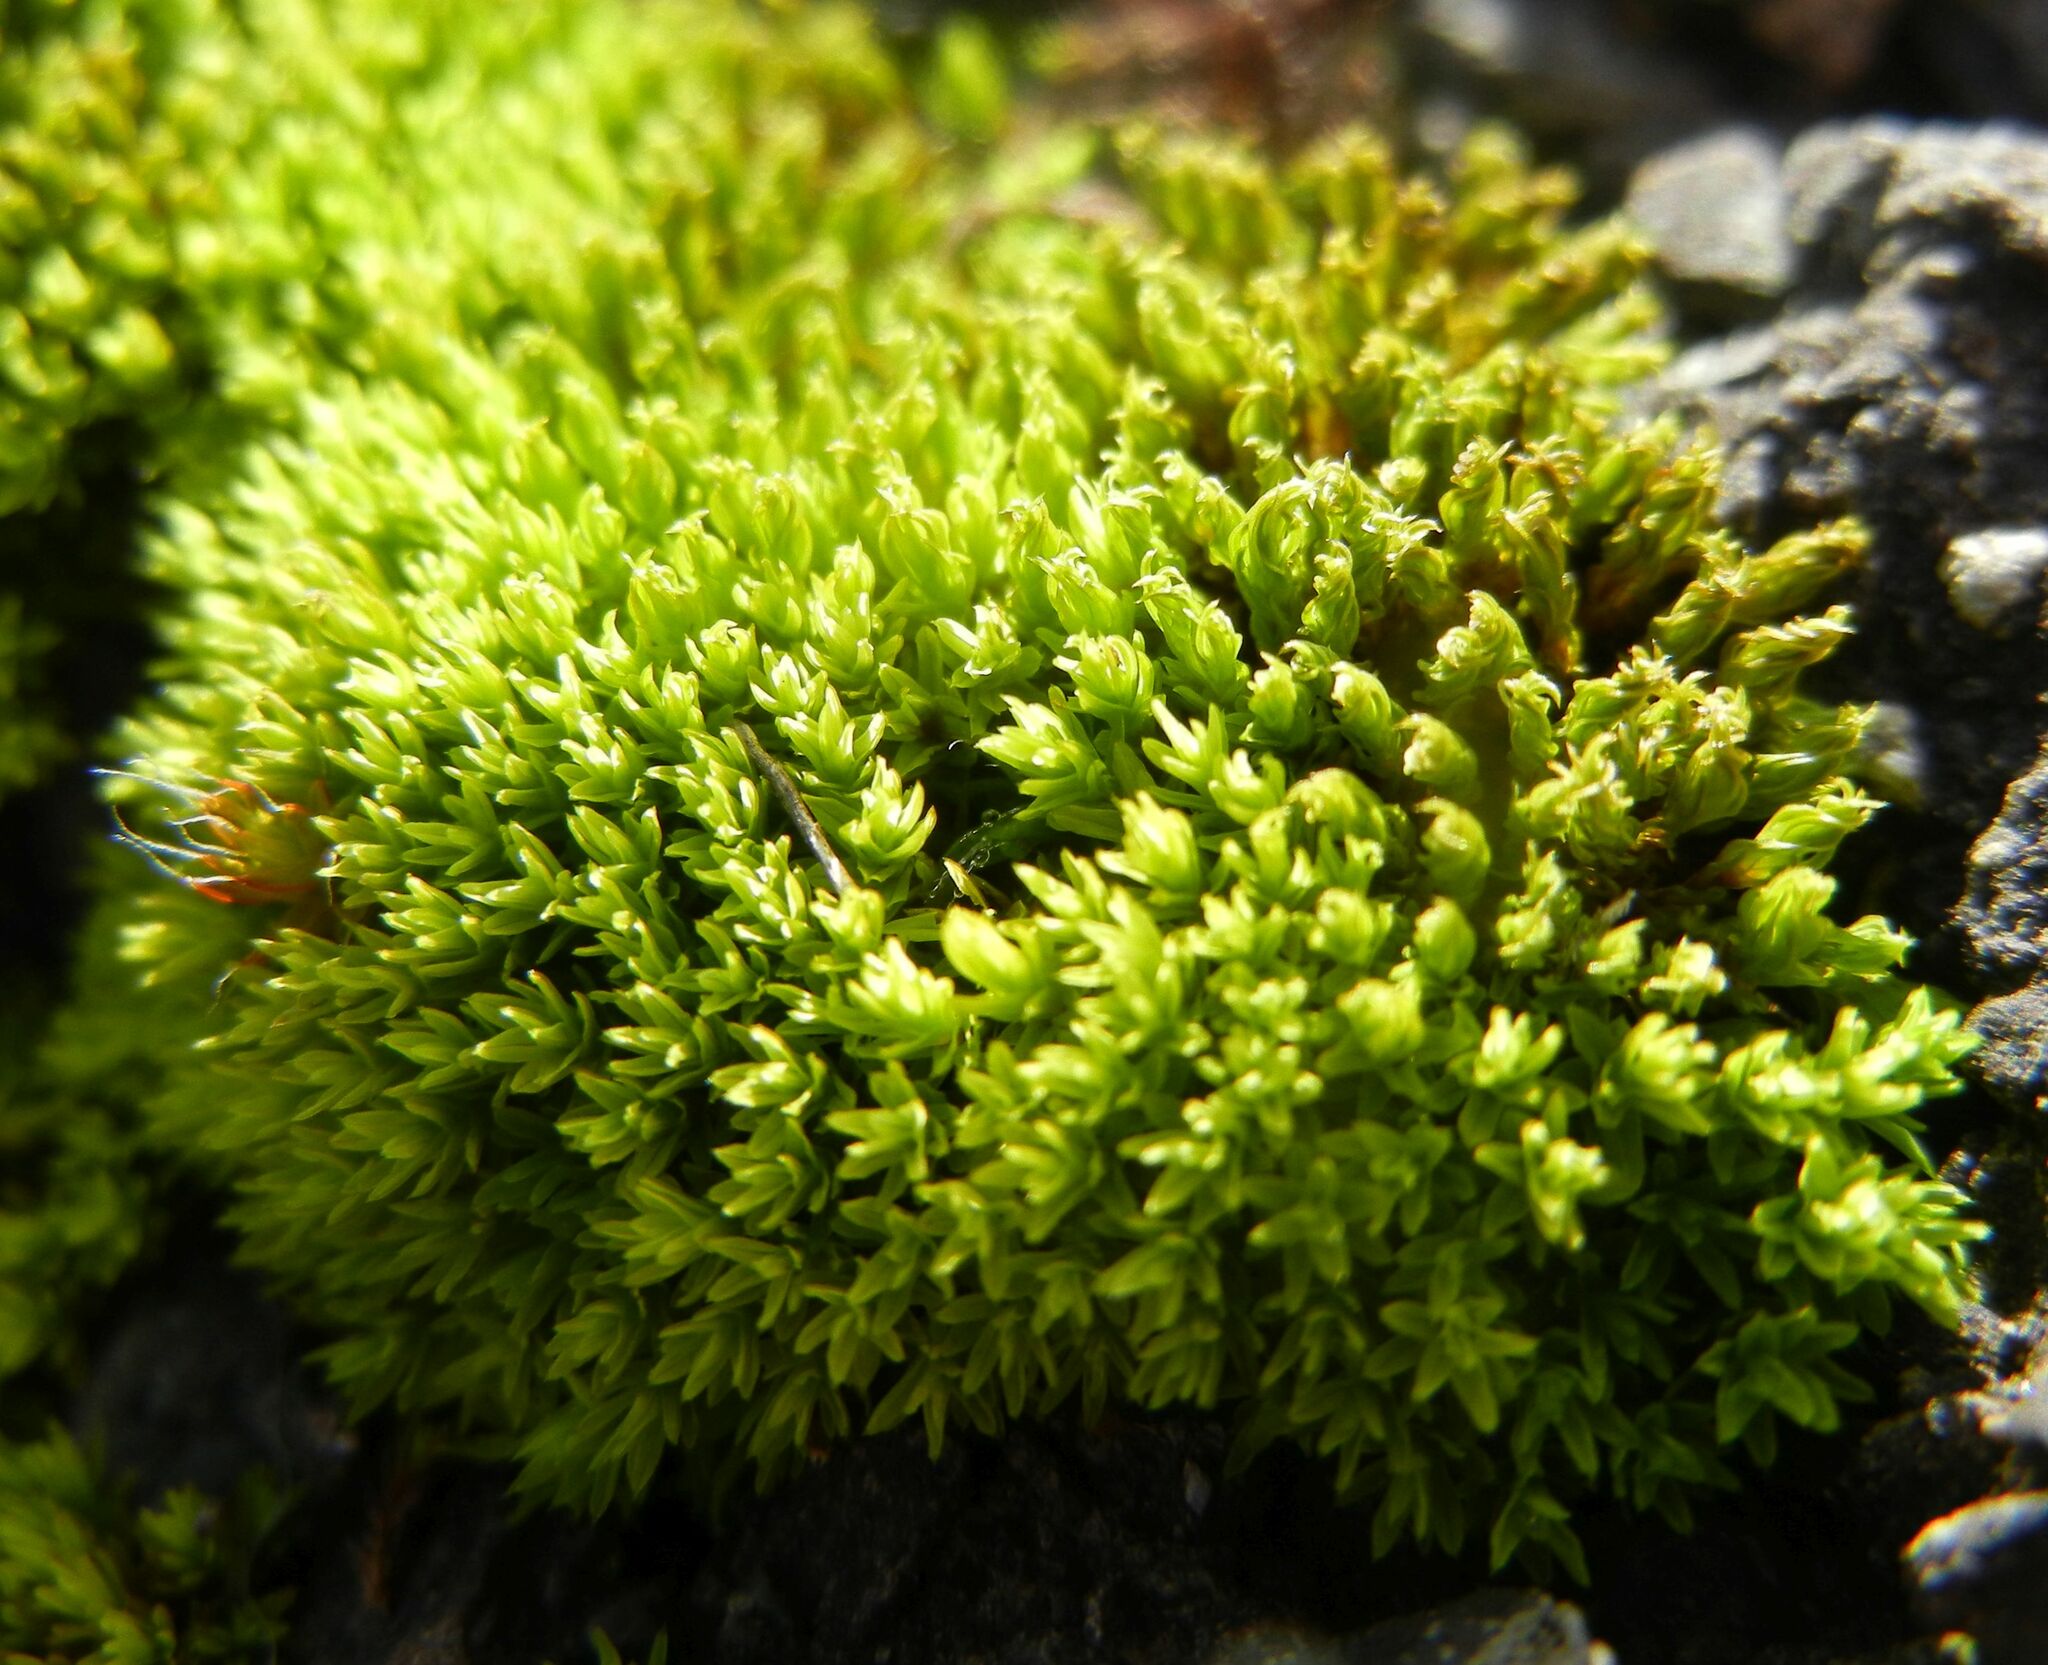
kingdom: Plantae
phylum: Bryophyta
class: Bryopsida
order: Pottiales
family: Pottiaceae
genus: Barbula
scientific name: Barbula unguiculata
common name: Prickly beard moss
